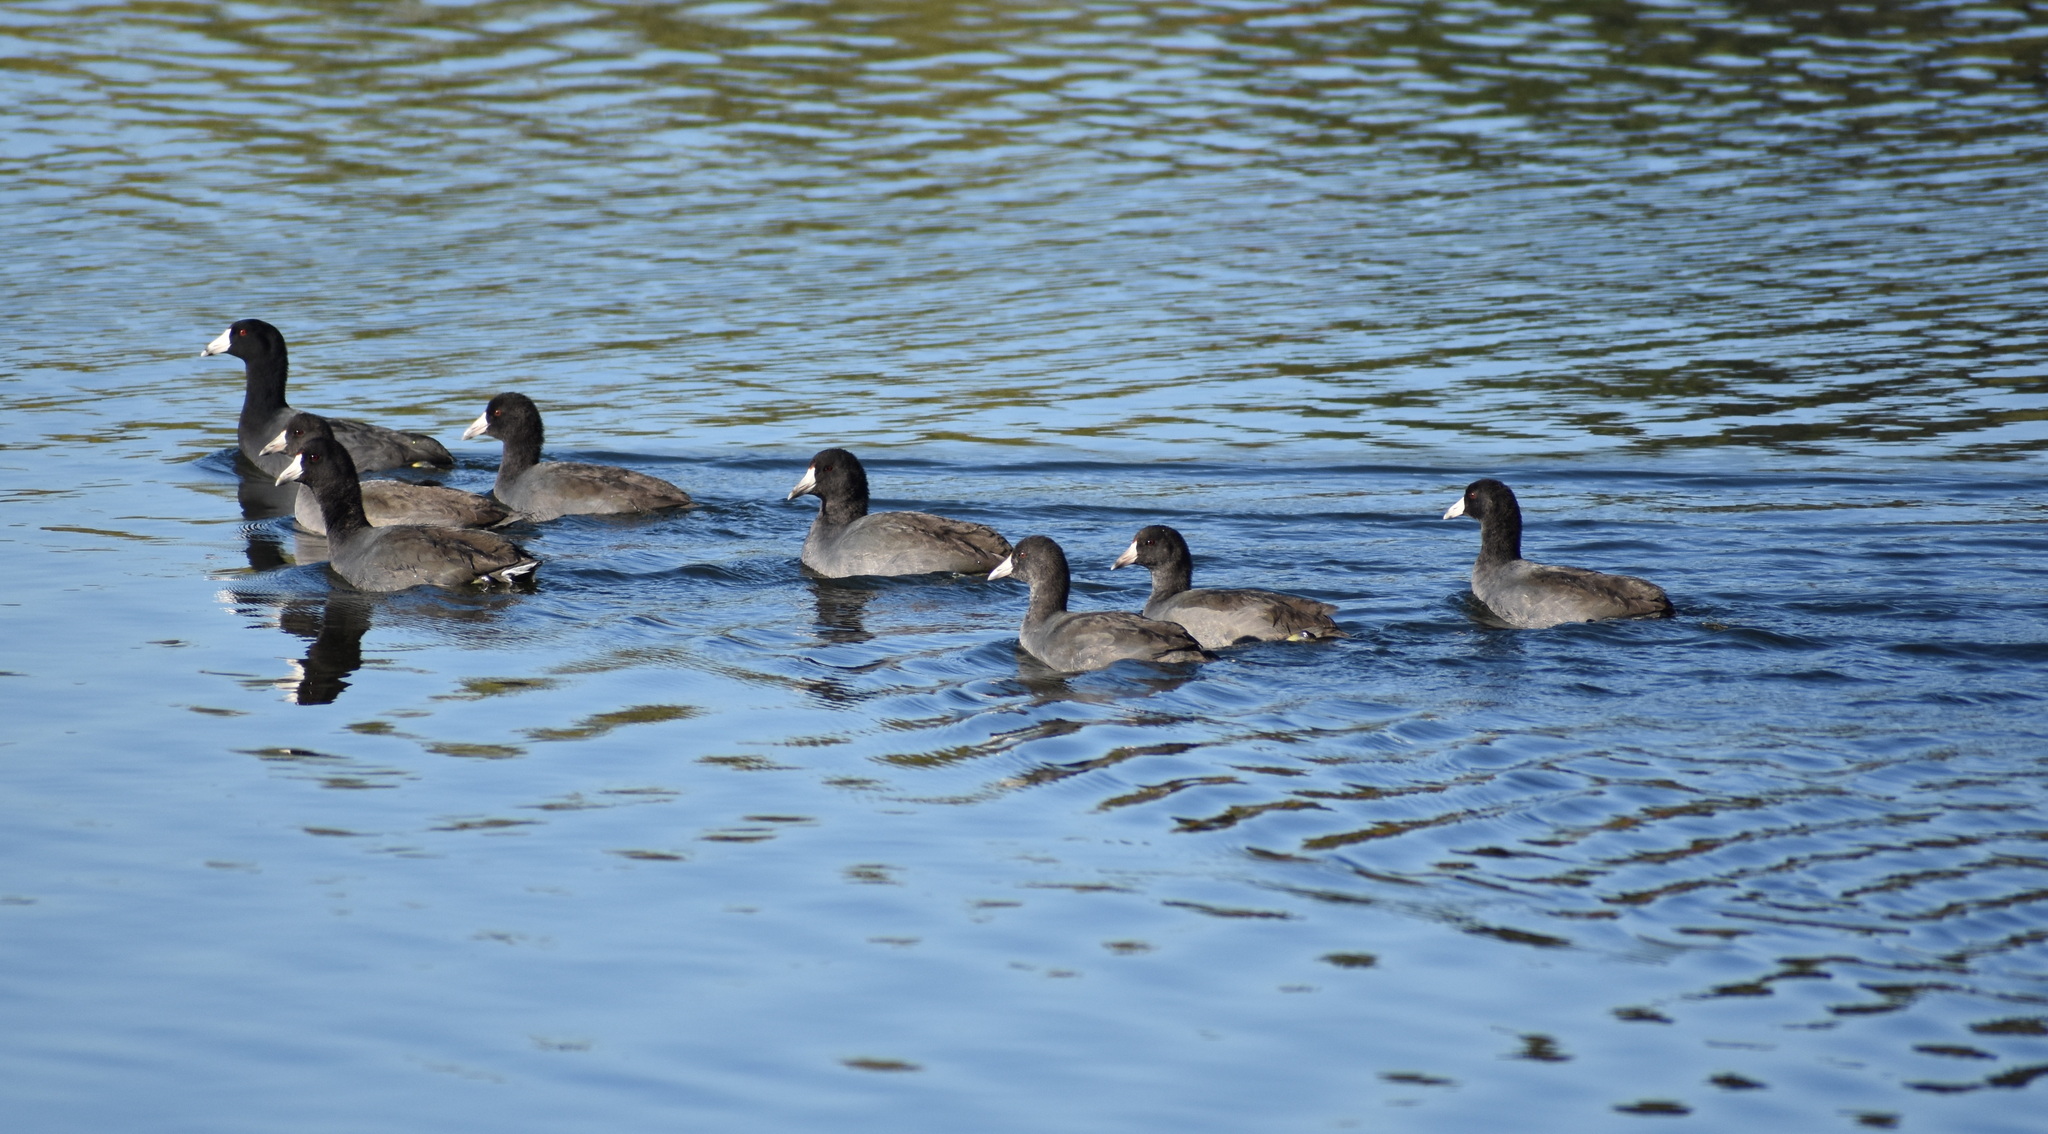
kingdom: Animalia
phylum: Chordata
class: Aves
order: Gruiformes
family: Rallidae
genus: Fulica
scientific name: Fulica americana
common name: American coot
